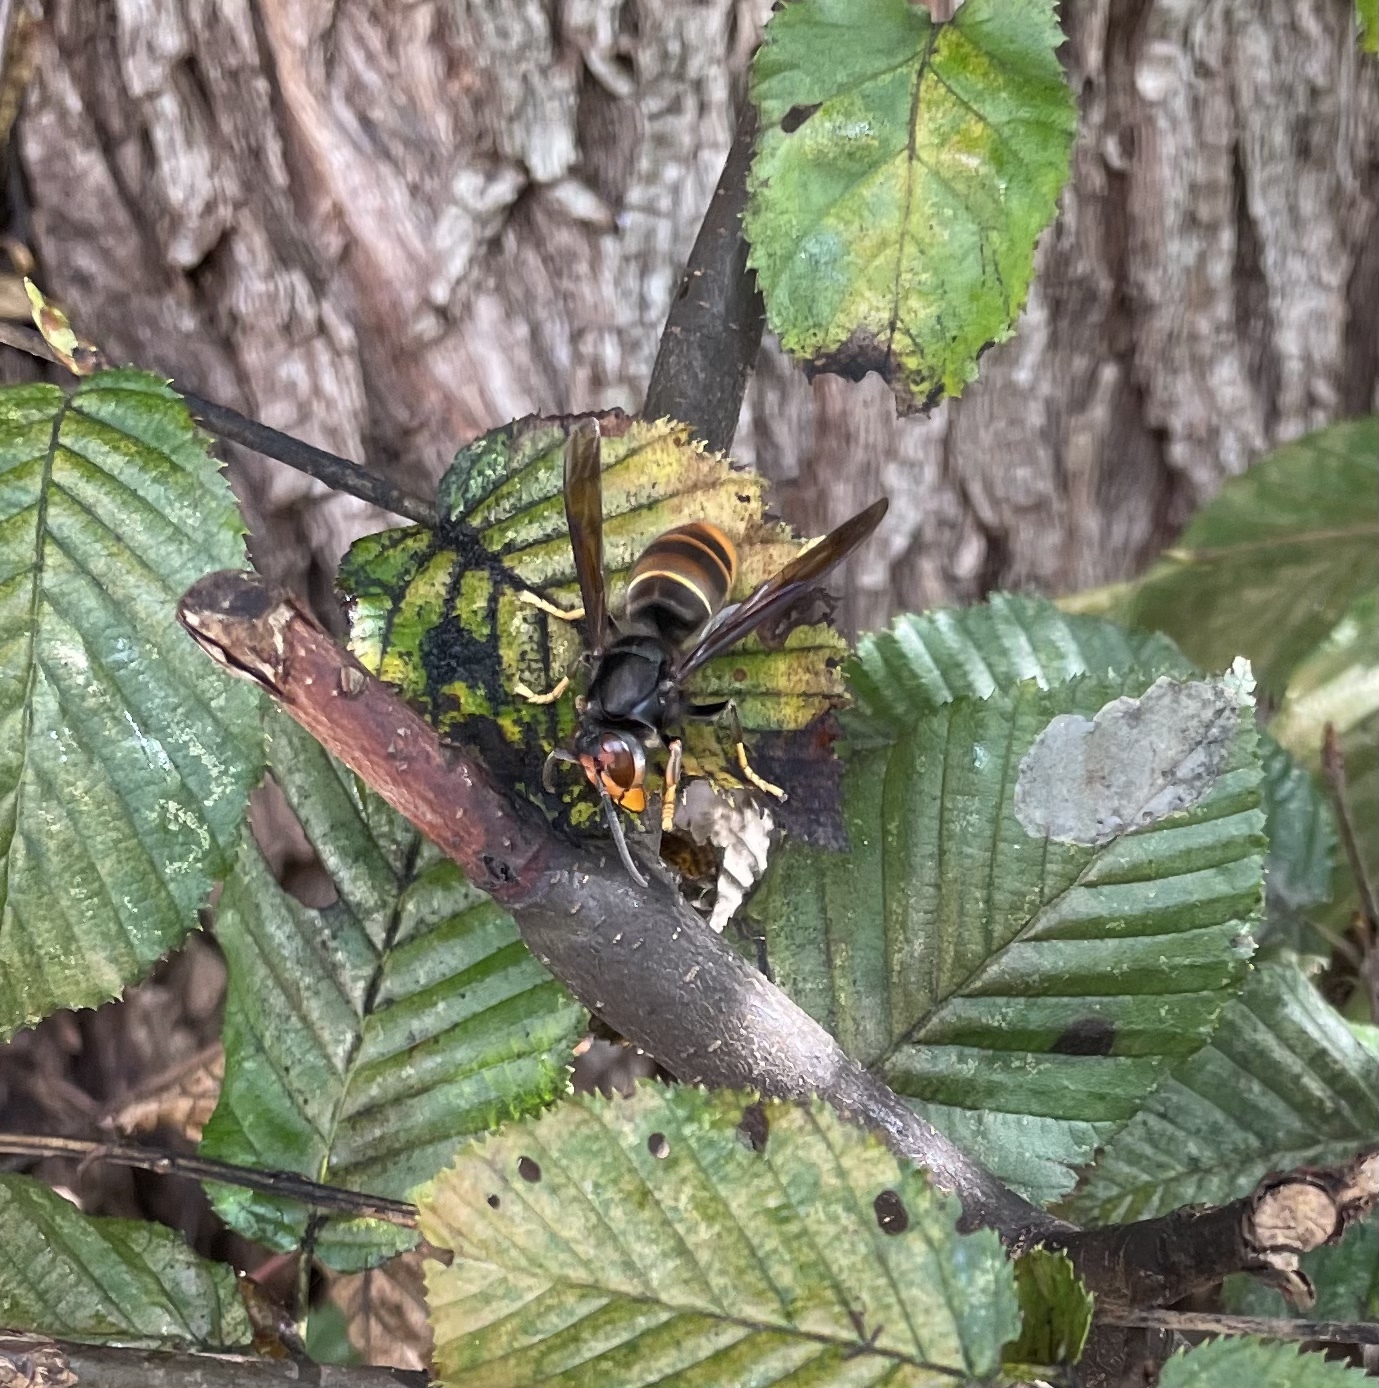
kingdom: Animalia
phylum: Arthropoda
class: Insecta
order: Hymenoptera
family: Vespidae
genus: Vespa
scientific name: Vespa velutina
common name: Asian hornet
